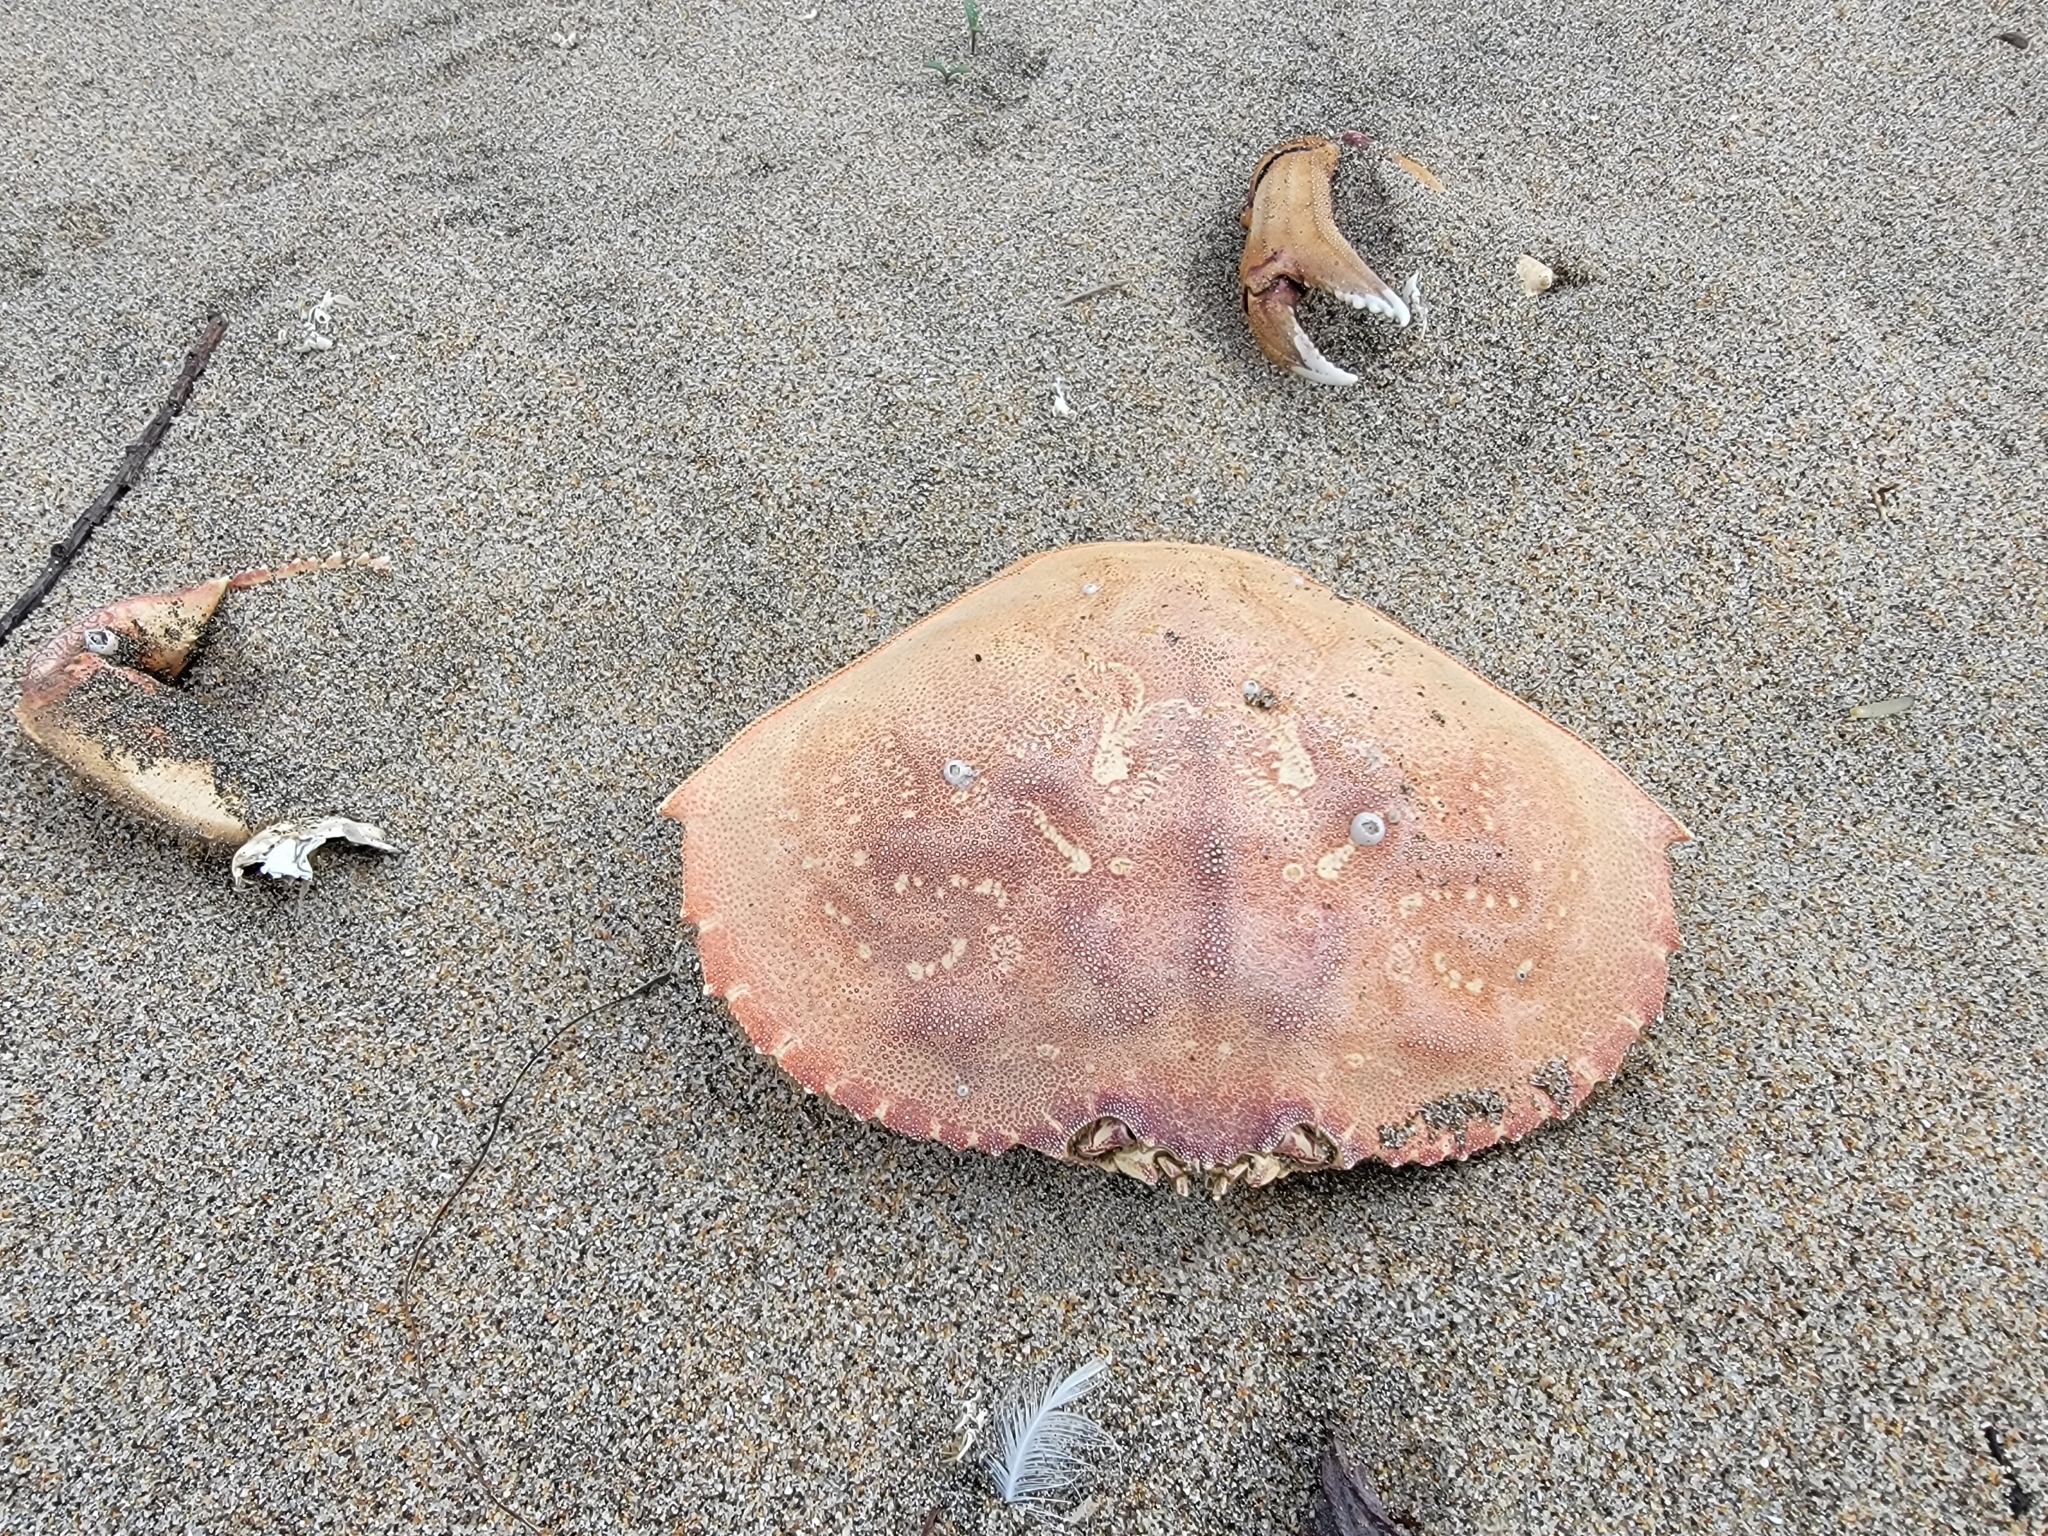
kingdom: Animalia
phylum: Arthropoda
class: Malacostraca
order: Decapoda
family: Cancridae
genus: Metacarcinus
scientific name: Metacarcinus magister
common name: Californian crab
